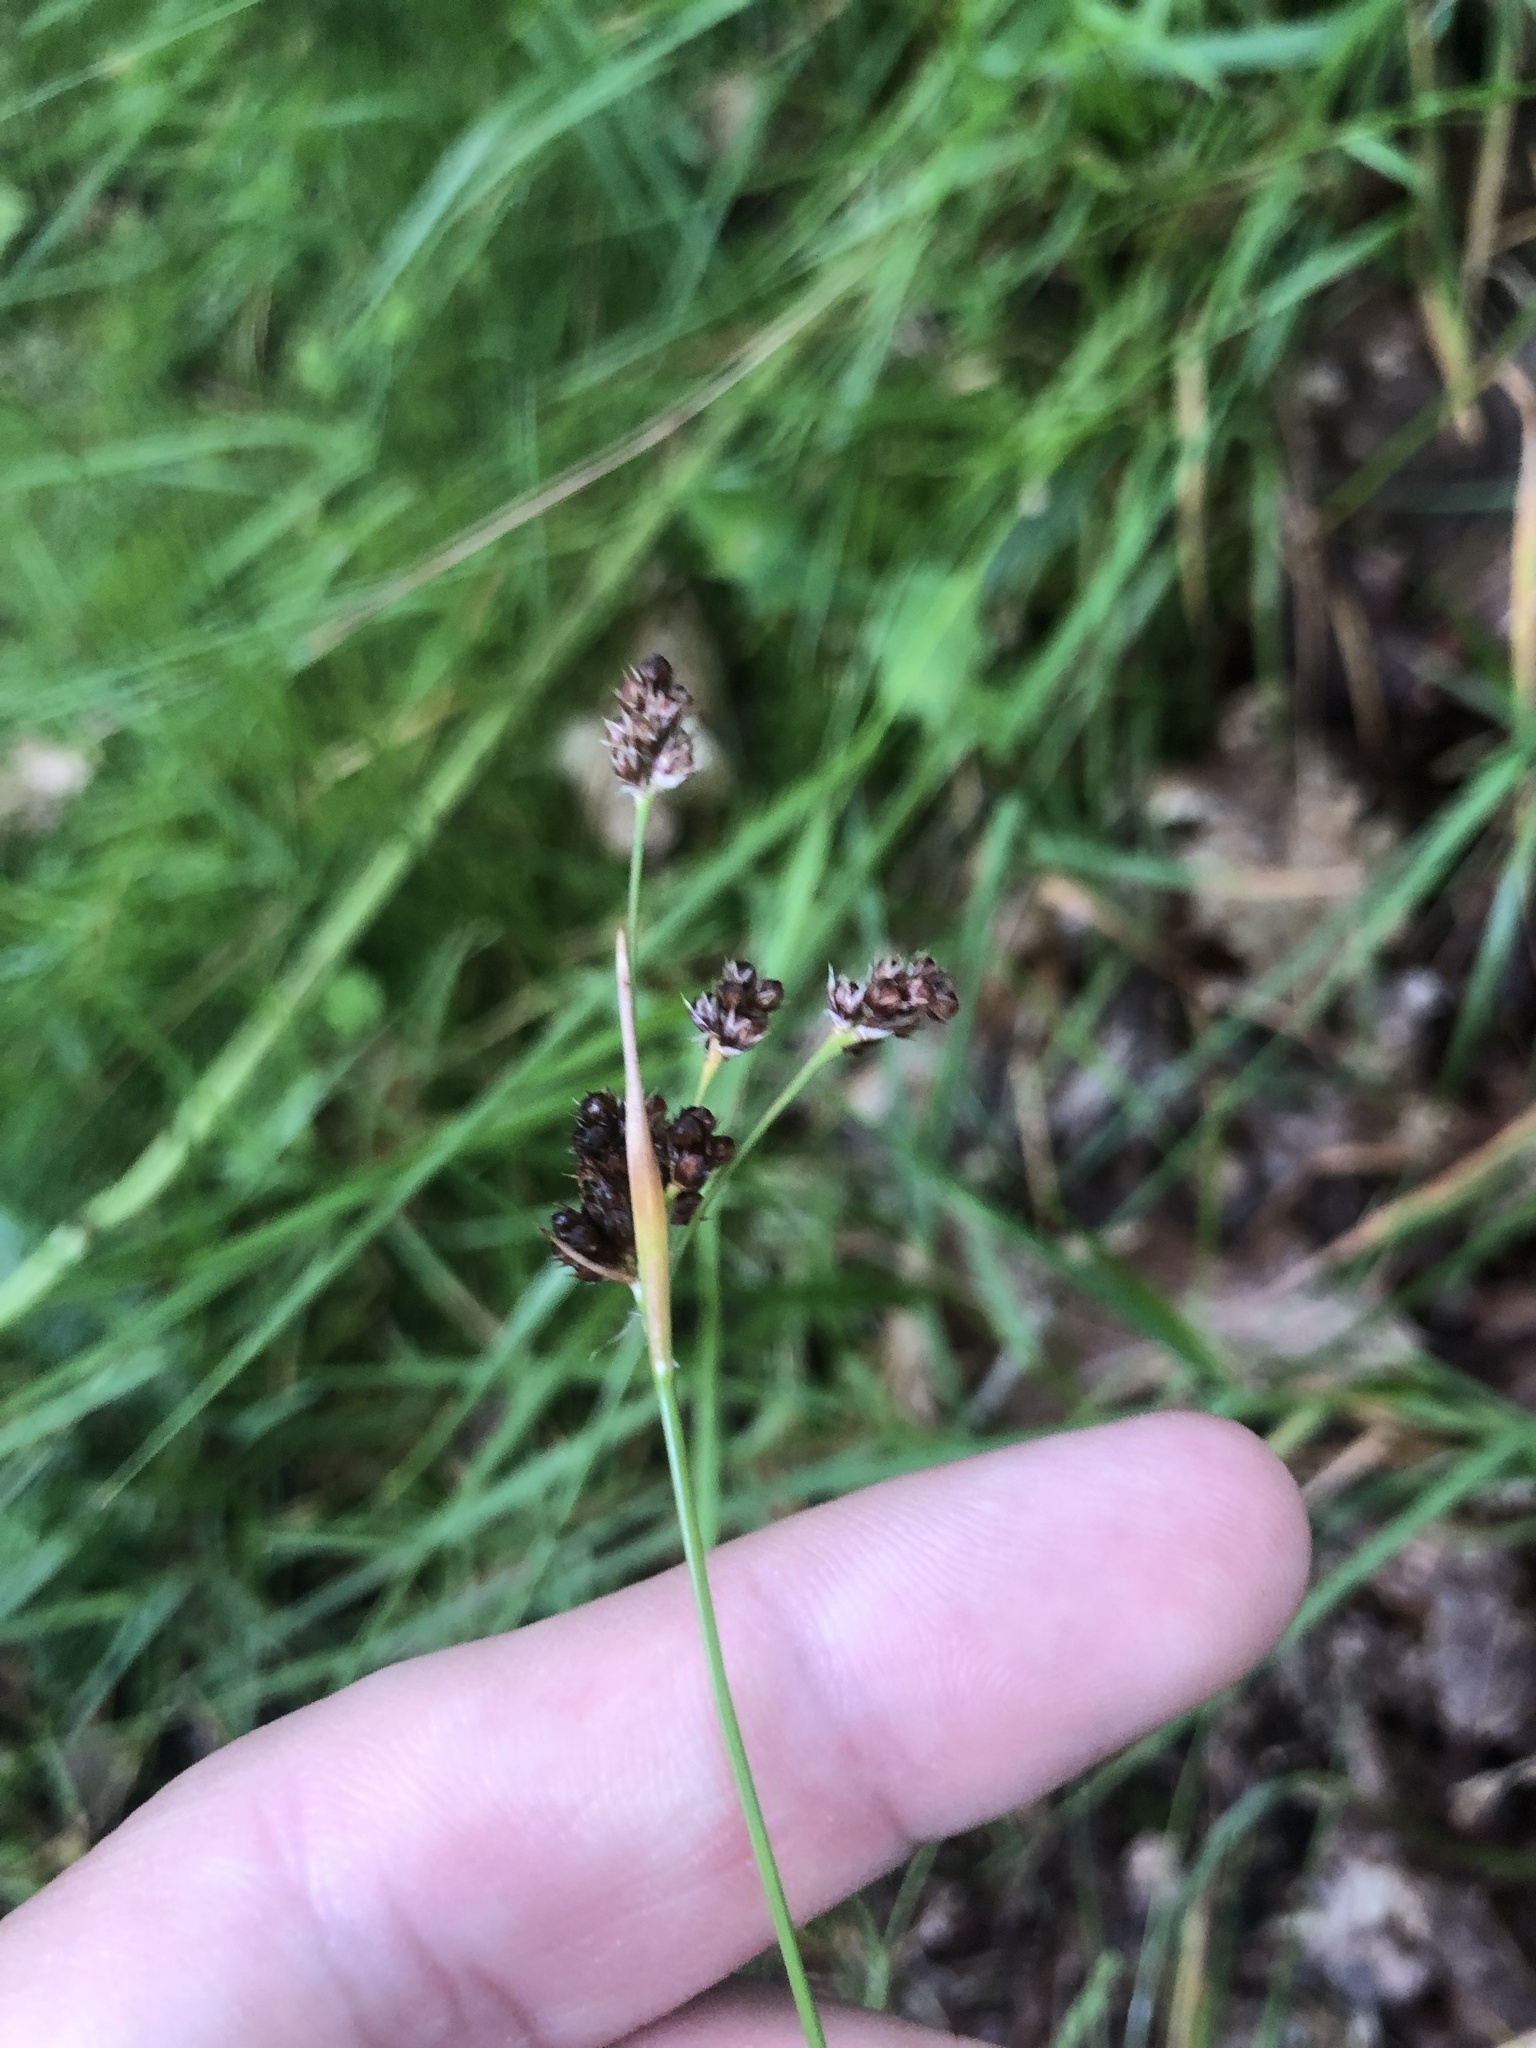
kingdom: Plantae
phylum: Tracheophyta
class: Liliopsida
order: Poales
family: Juncaceae
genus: Luzula
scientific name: Luzula multiflora
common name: Heath wood-rush
